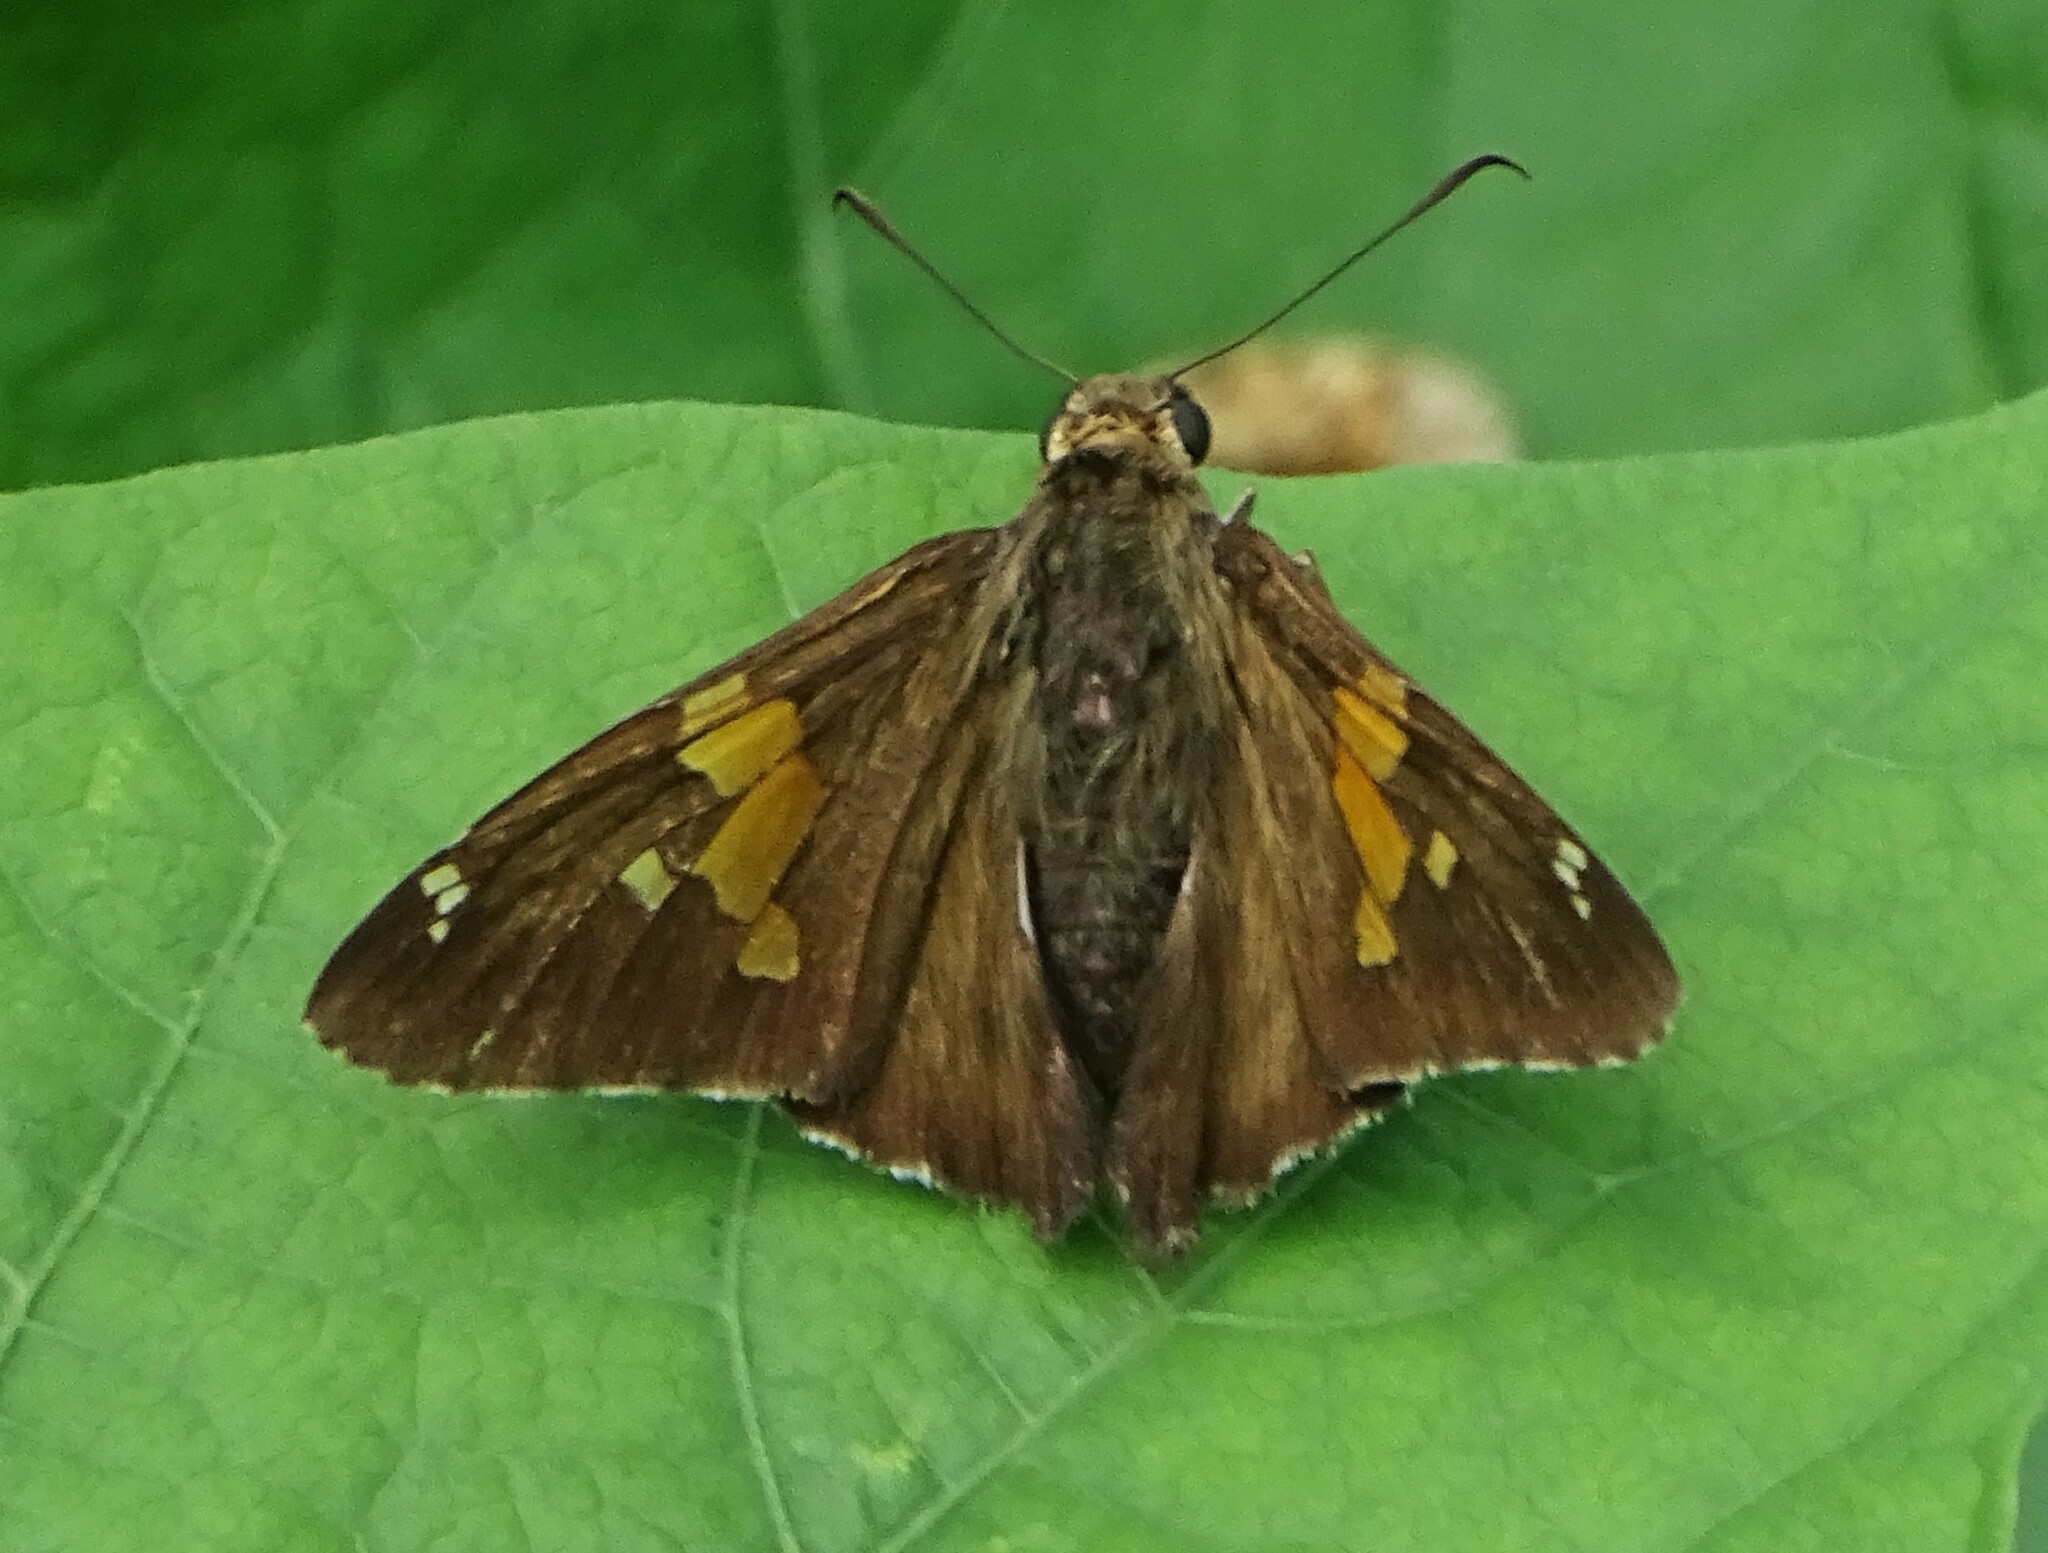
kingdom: Animalia
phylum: Arthropoda
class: Insecta
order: Lepidoptera
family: Hesperiidae
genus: Epargyreus
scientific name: Epargyreus clarus
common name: Silver-spotted skipper
